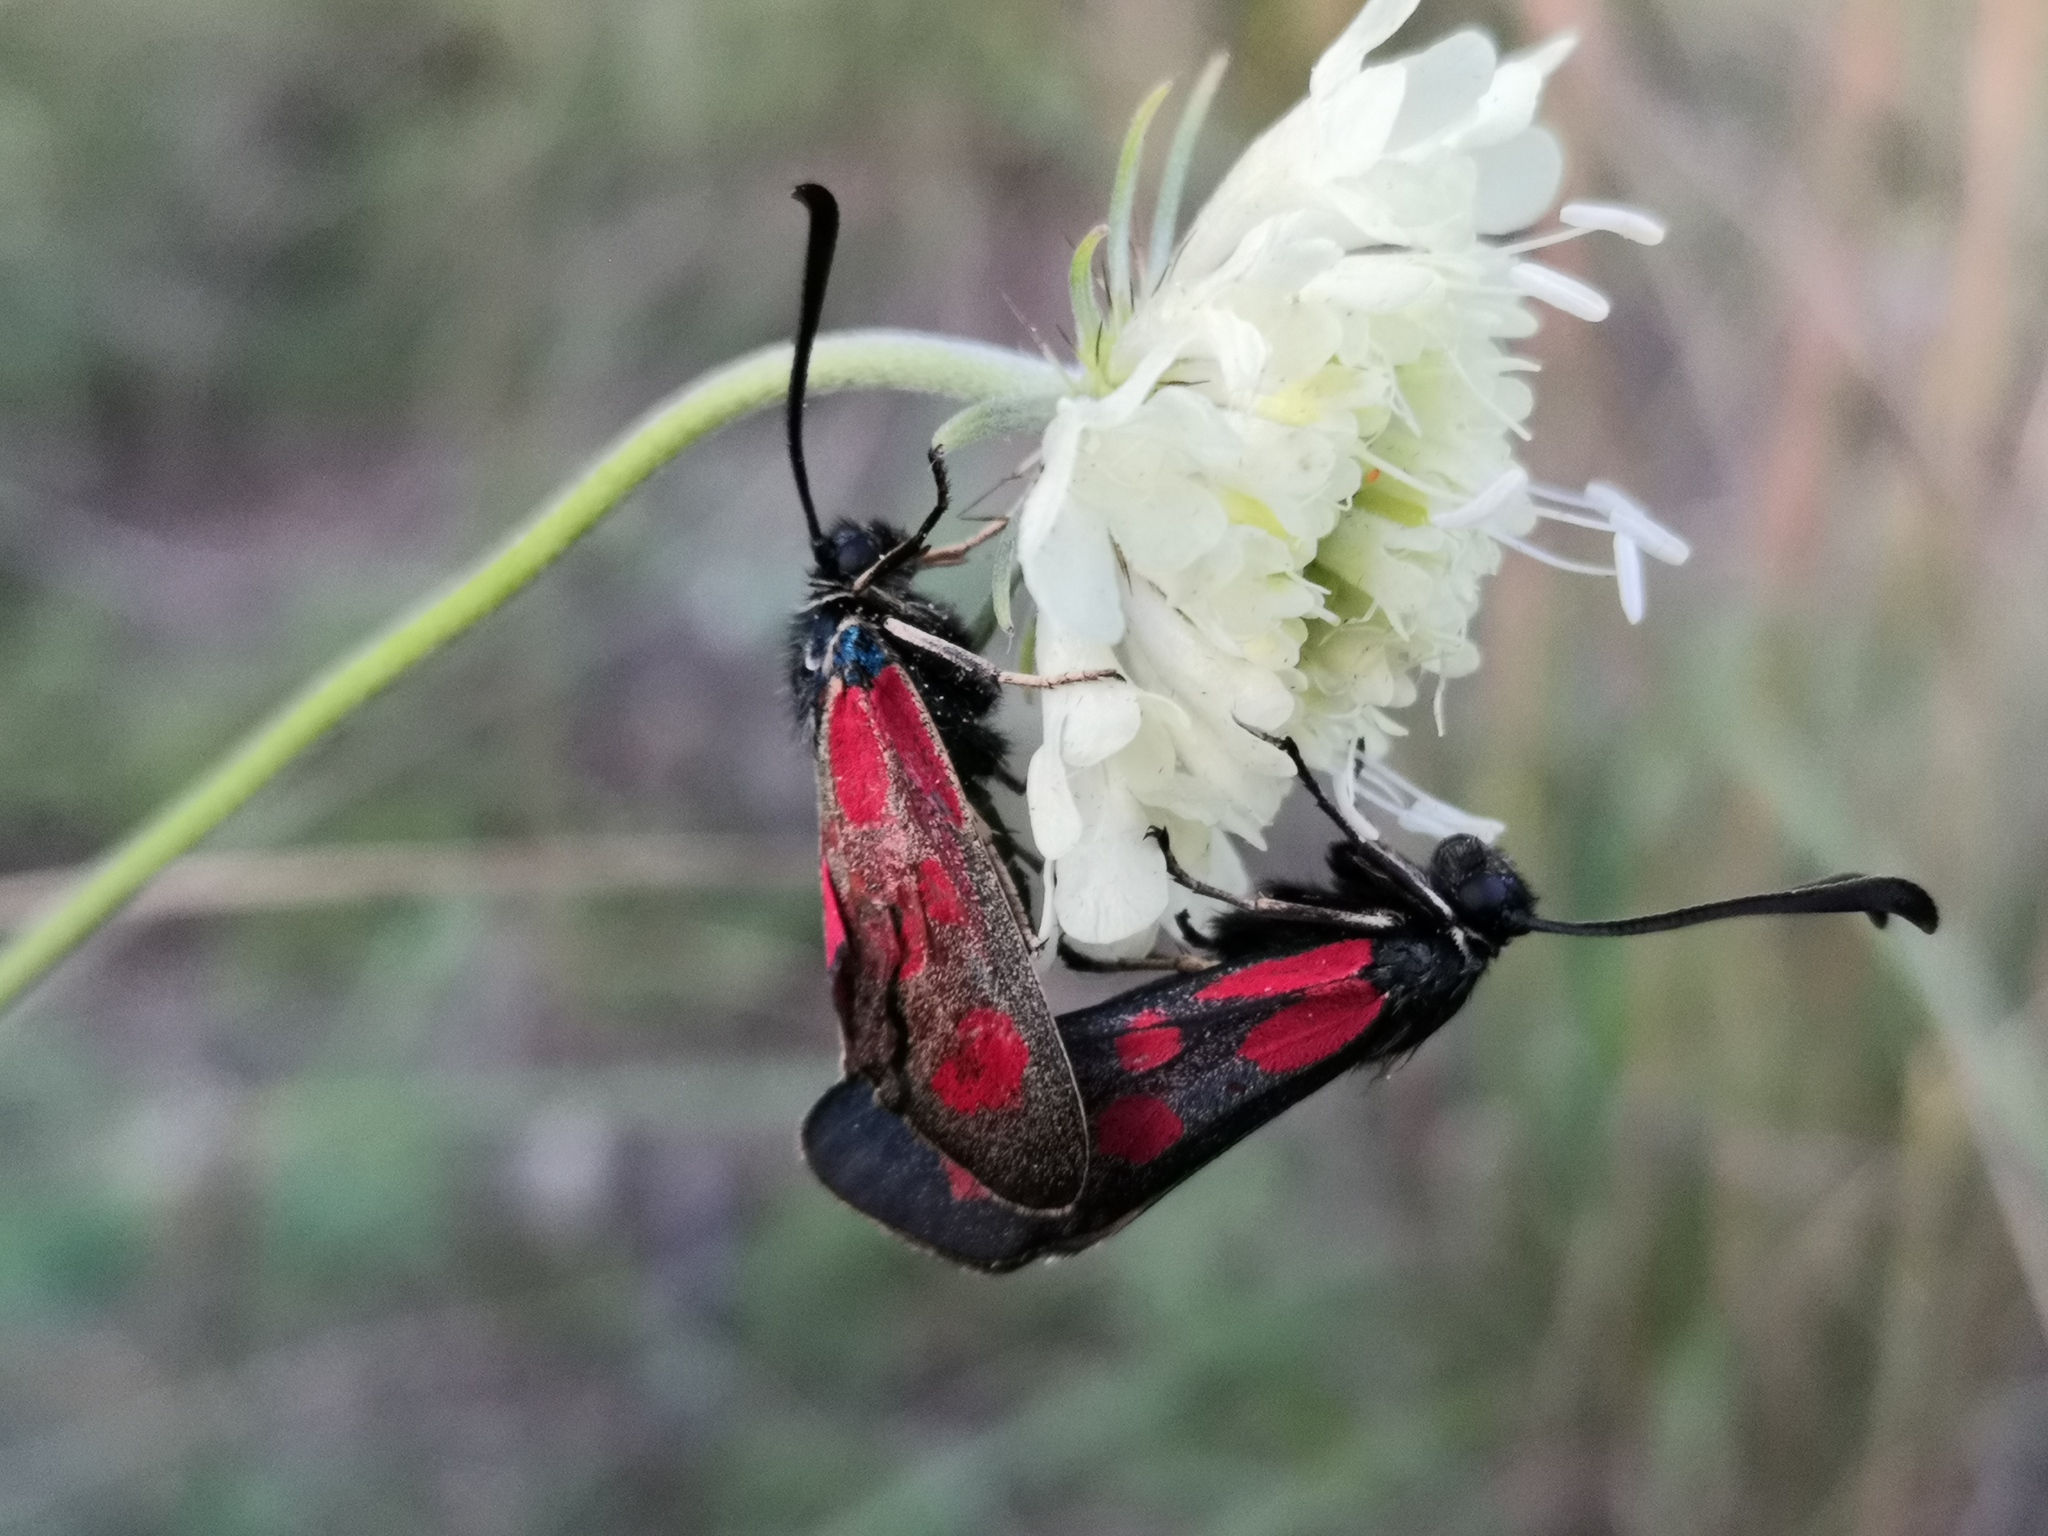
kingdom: Animalia
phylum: Arthropoda
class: Insecta
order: Lepidoptera
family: Zygaenidae
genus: Zygaena
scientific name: Zygaena loti
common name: Slender scotch burnet
